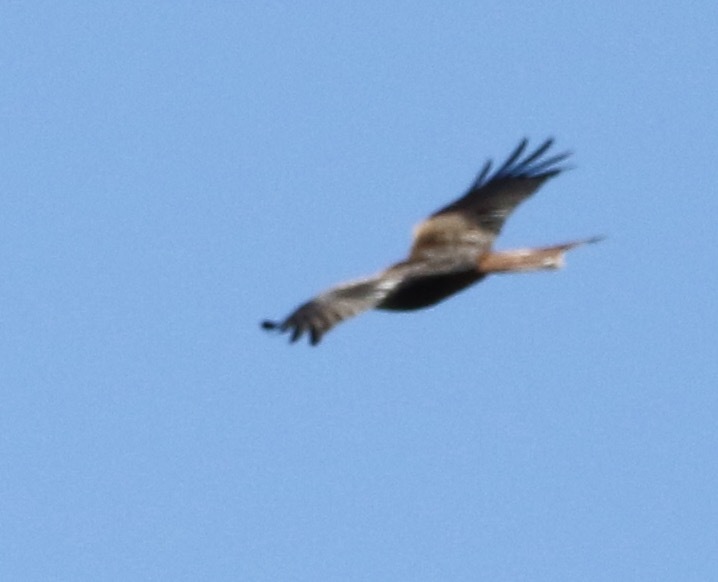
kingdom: Animalia
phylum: Chordata
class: Aves
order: Accipitriformes
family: Accipitridae
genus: Milvus
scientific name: Milvus milvus
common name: Red kite
